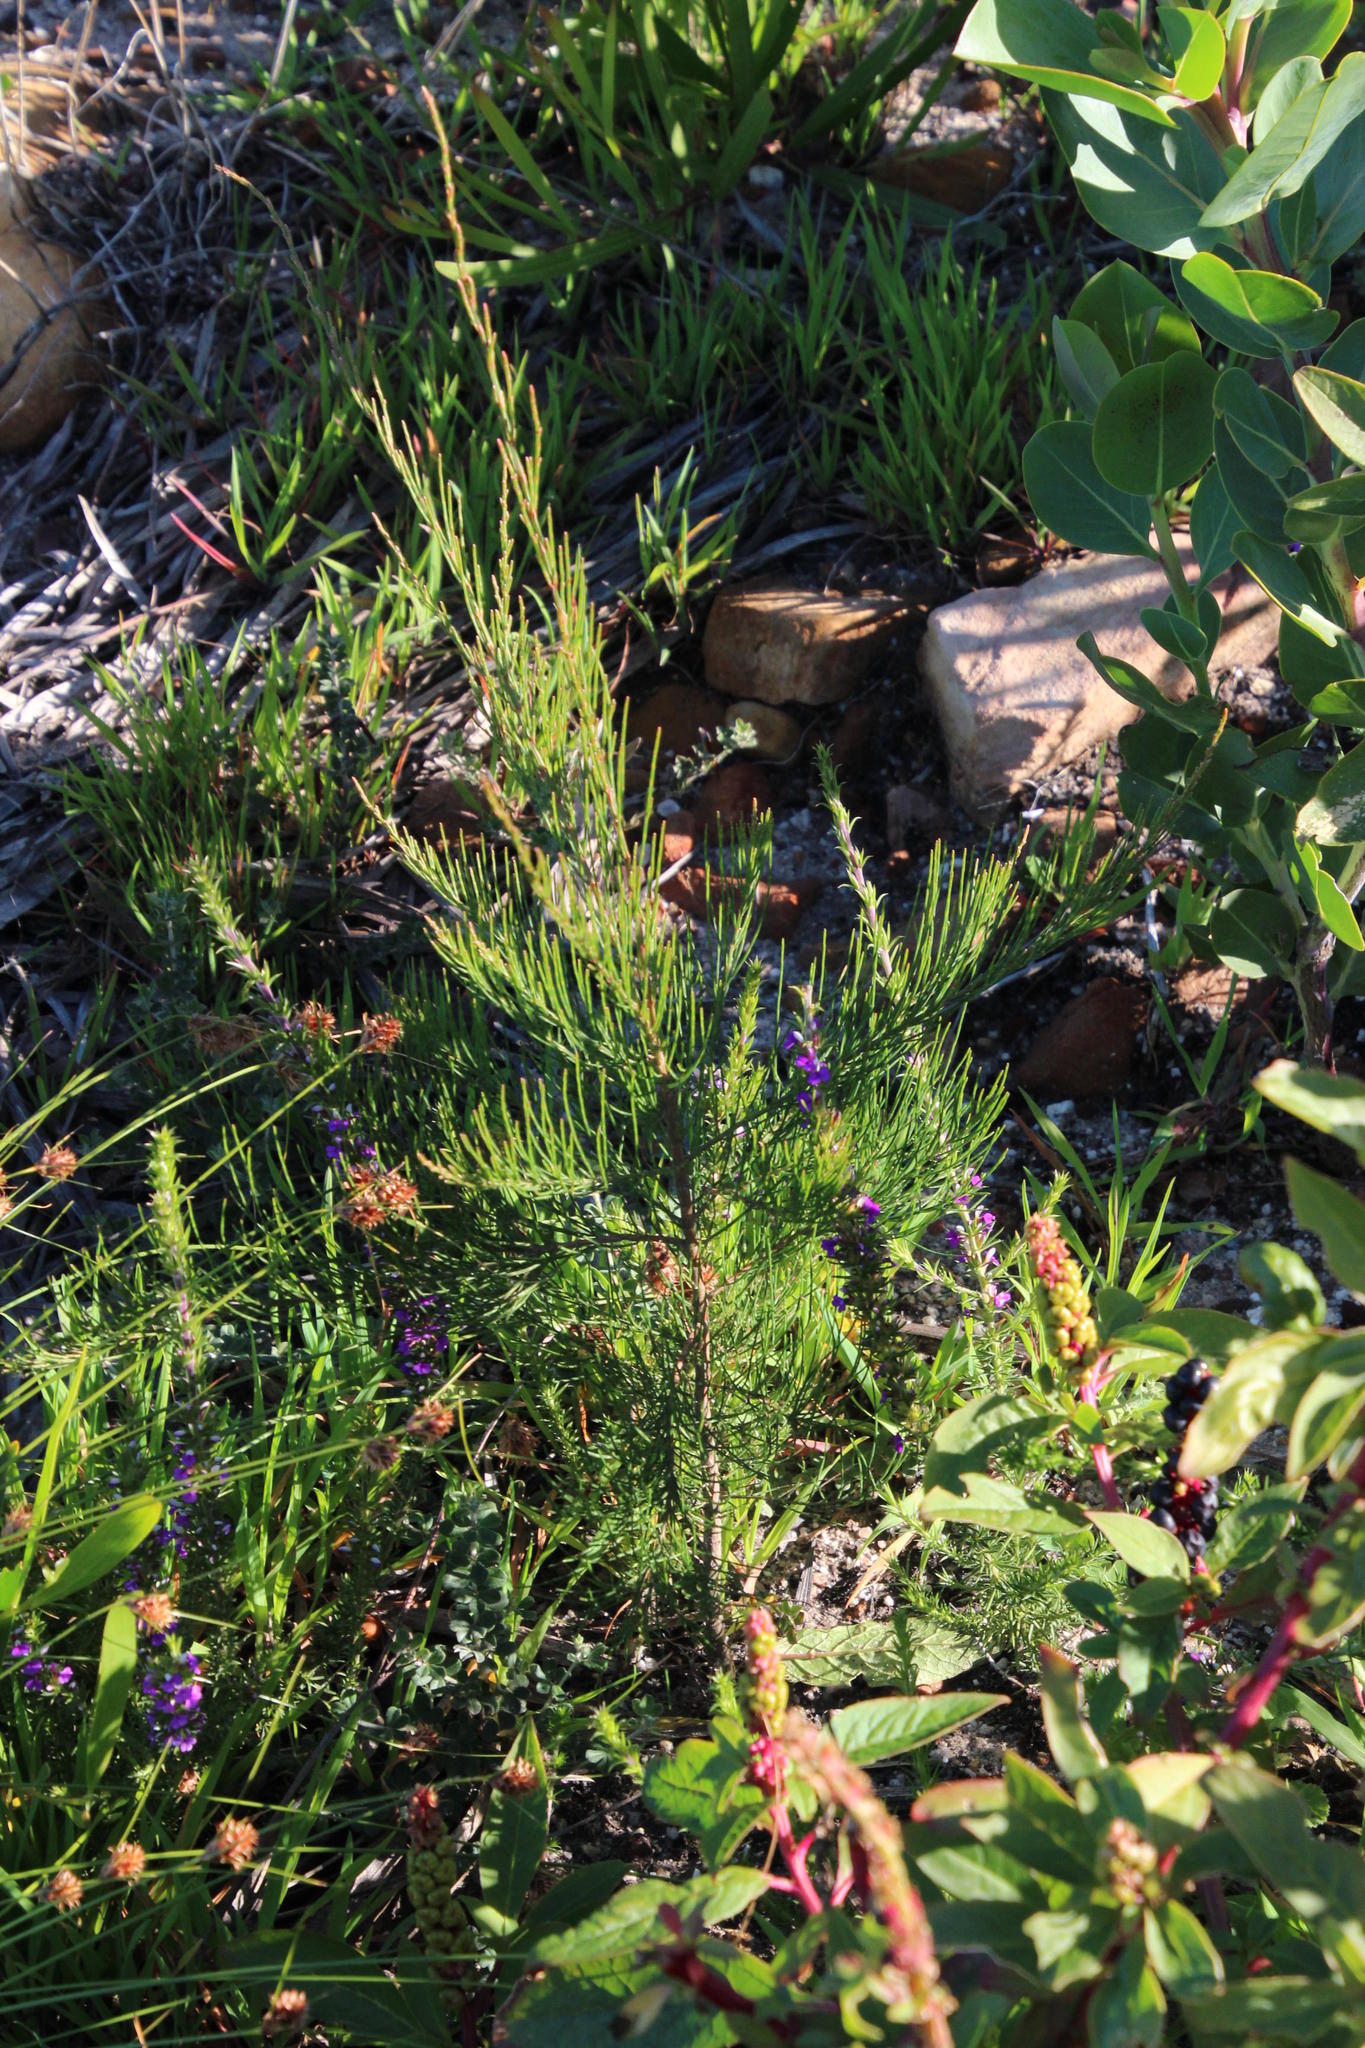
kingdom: Plantae
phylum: Tracheophyta
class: Magnoliopsida
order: Fagales
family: Casuarinaceae
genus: Allocasuarina
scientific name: Allocasuarina littoralis
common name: Black she-oak
